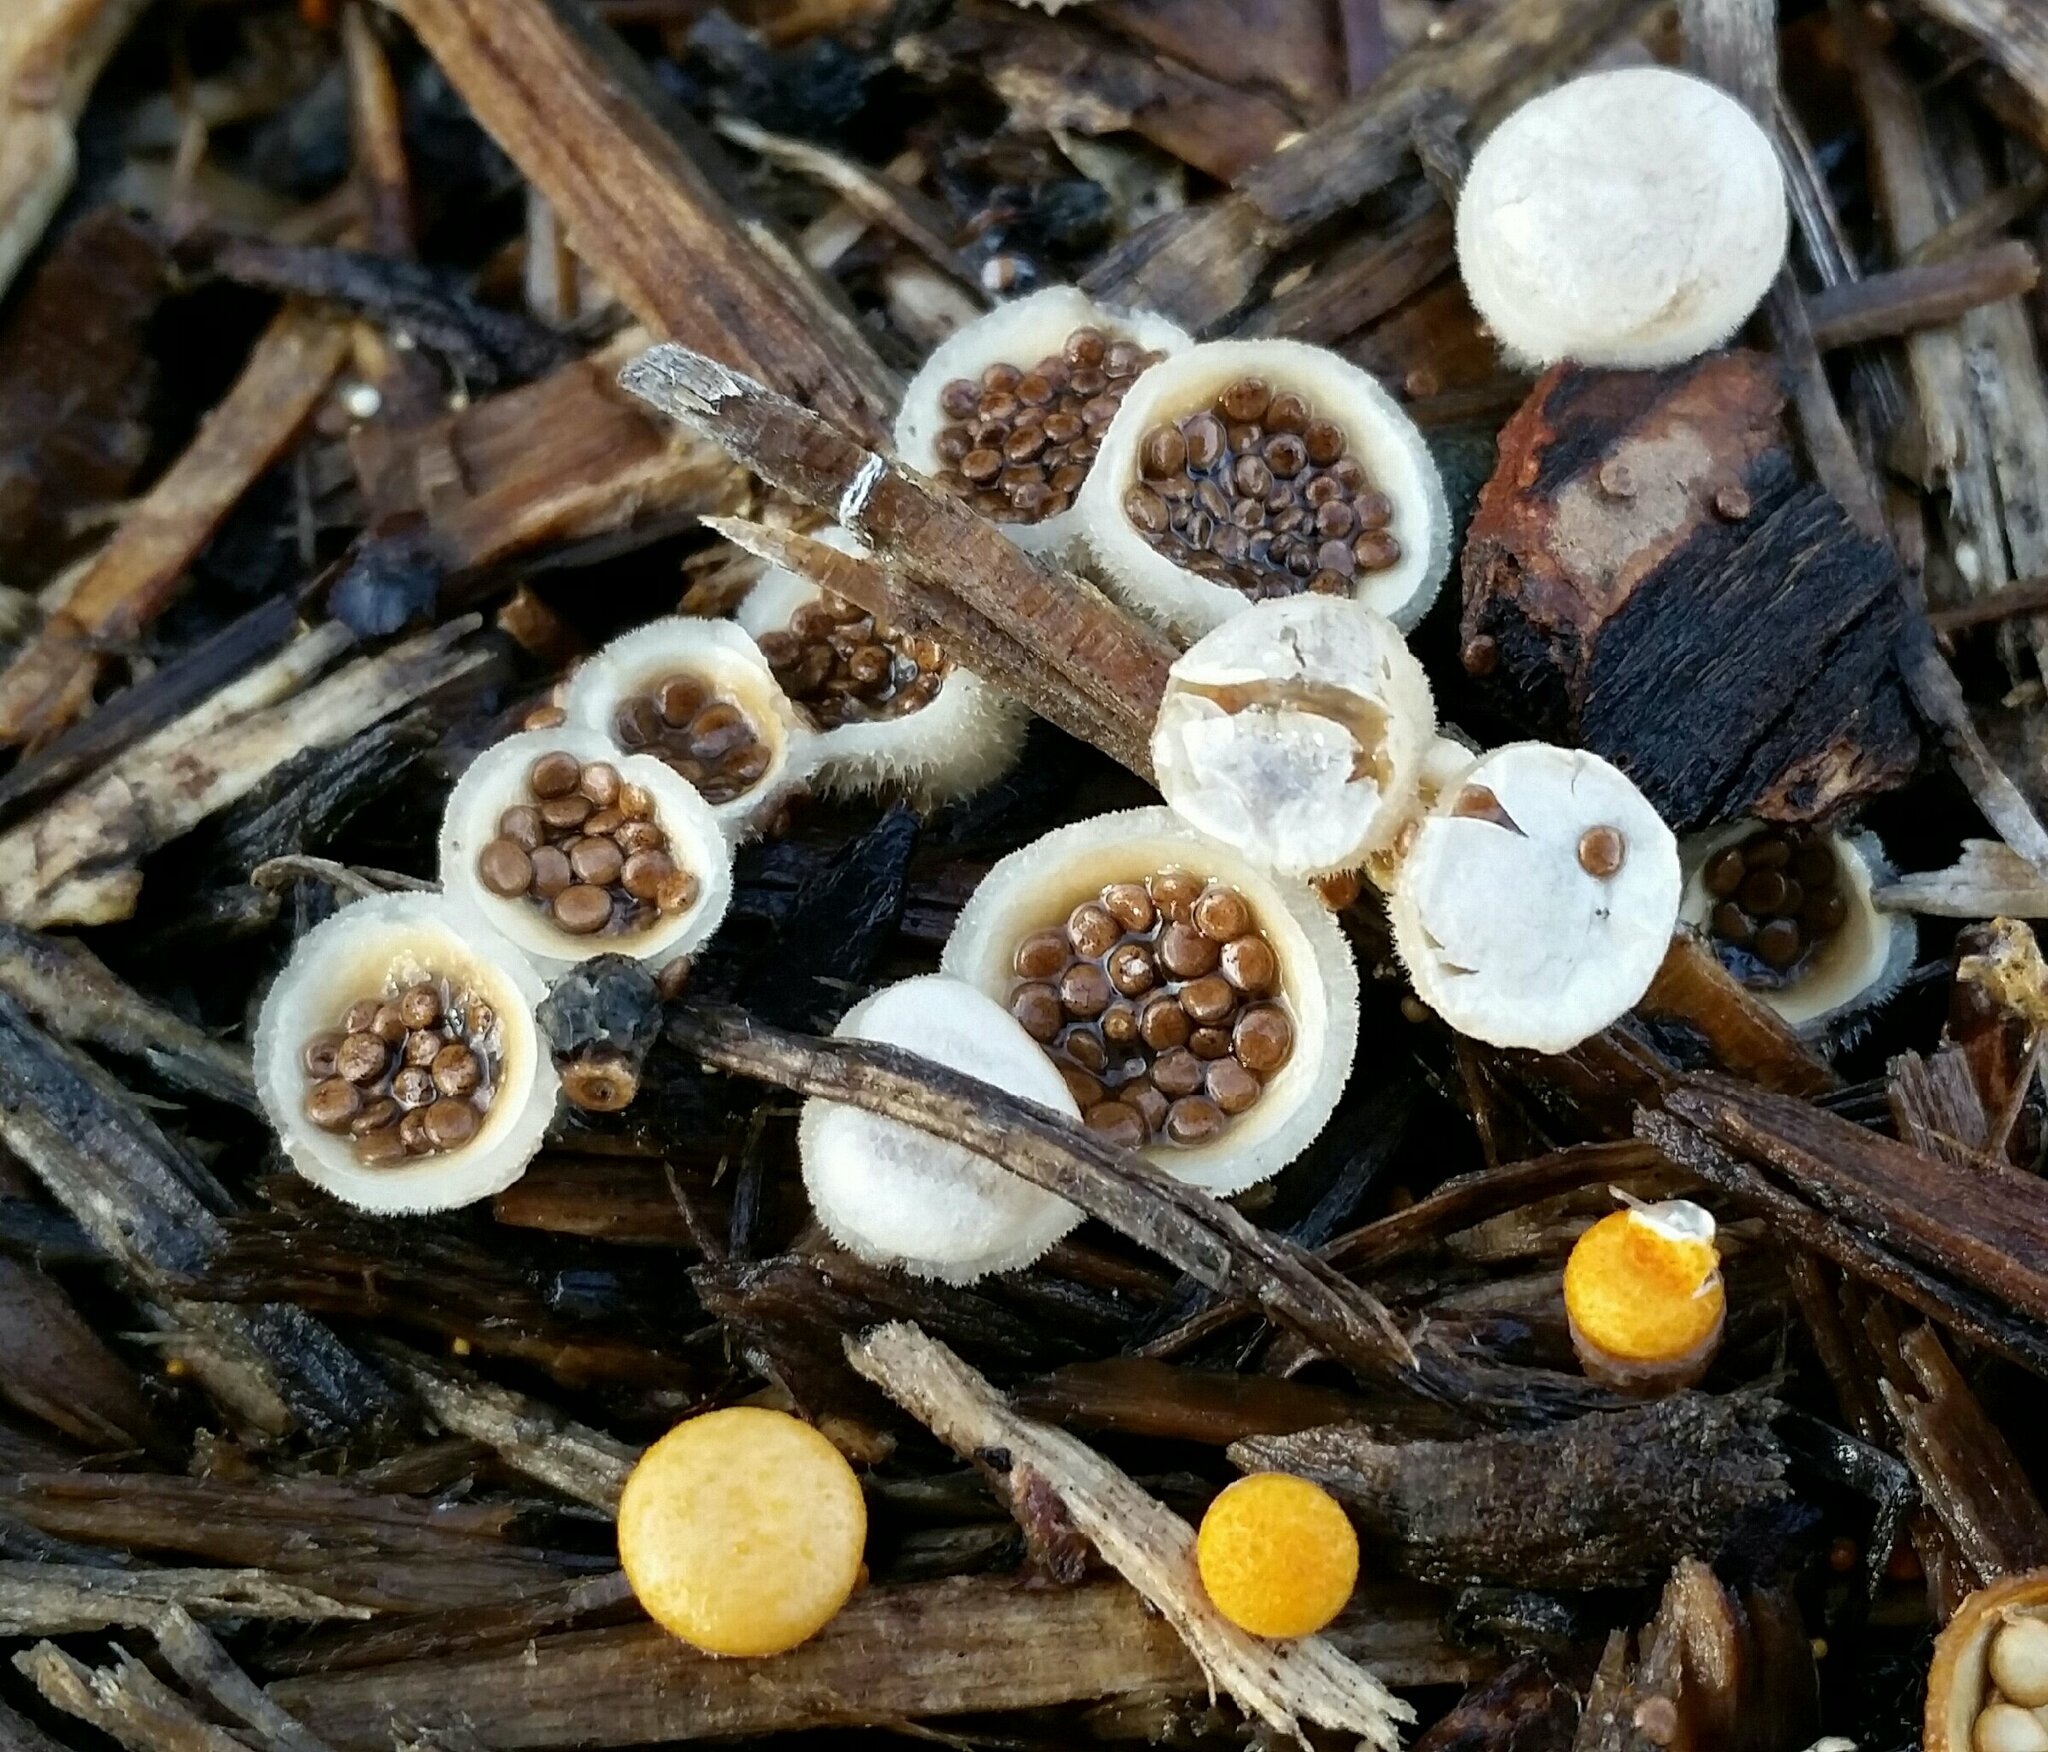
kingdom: Fungi
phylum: Basidiomycota
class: Agaricomycetes
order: Agaricales
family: Agaricaceae
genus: Nidula
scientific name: Nidula niveotomentosa
